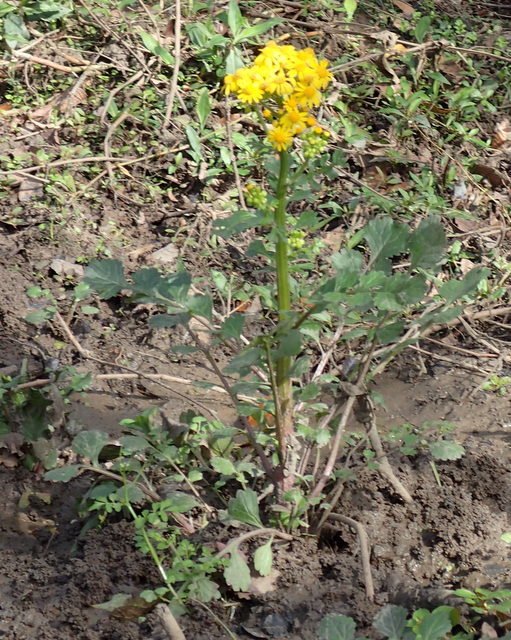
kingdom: Plantae
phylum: Tracheophyta
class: Magnoliopsida
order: Asterales
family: Asteraceae
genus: Packera
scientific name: Packera glabella
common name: Butterweed
